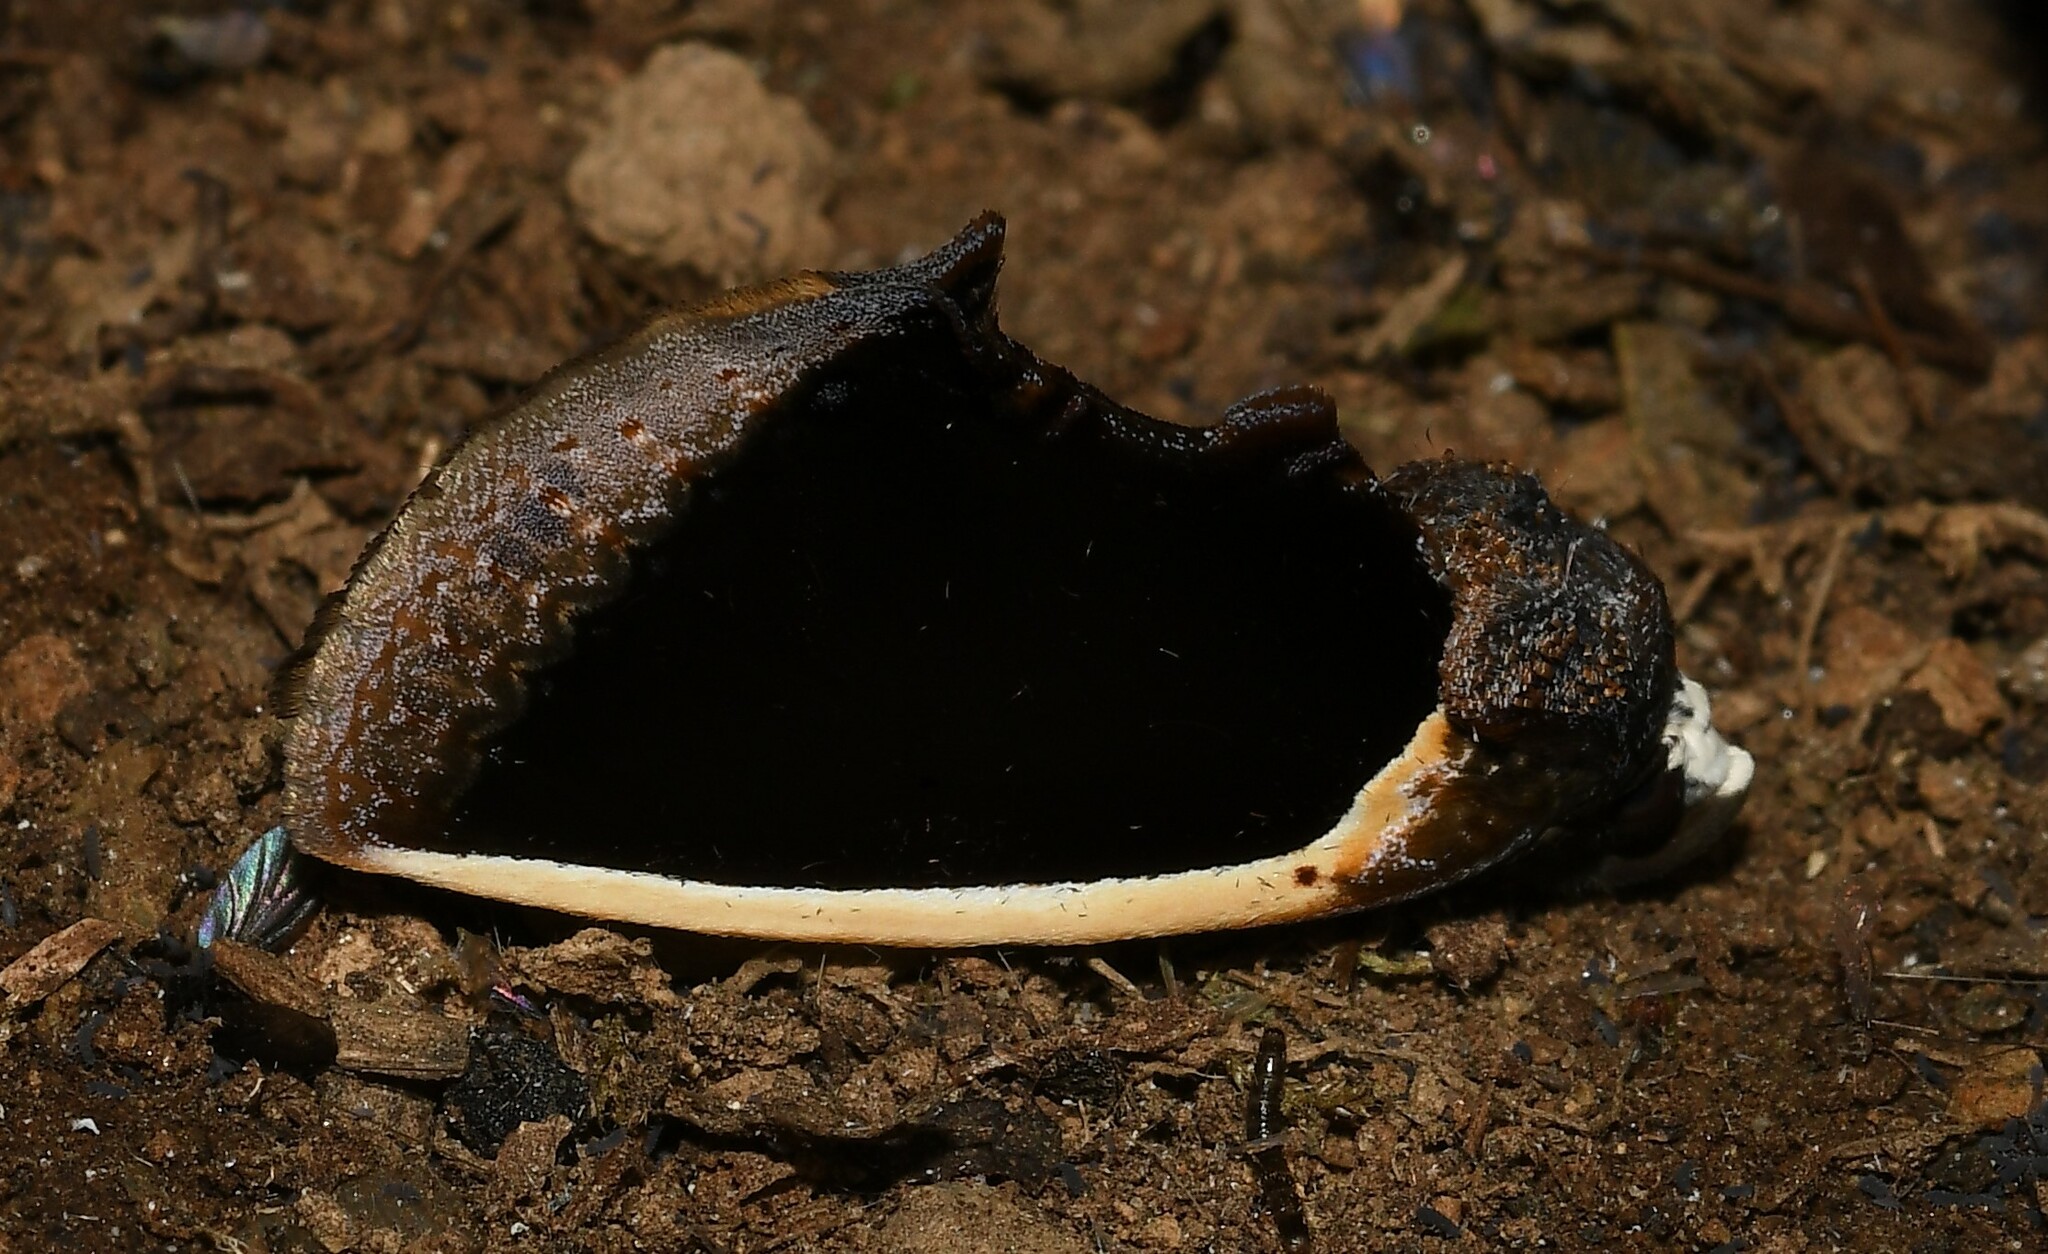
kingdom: Animalia
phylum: Arthropoda
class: Insecta
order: Lepidoptera
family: Erebidae
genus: Gonodonta
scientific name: Gonodonta holosericea
